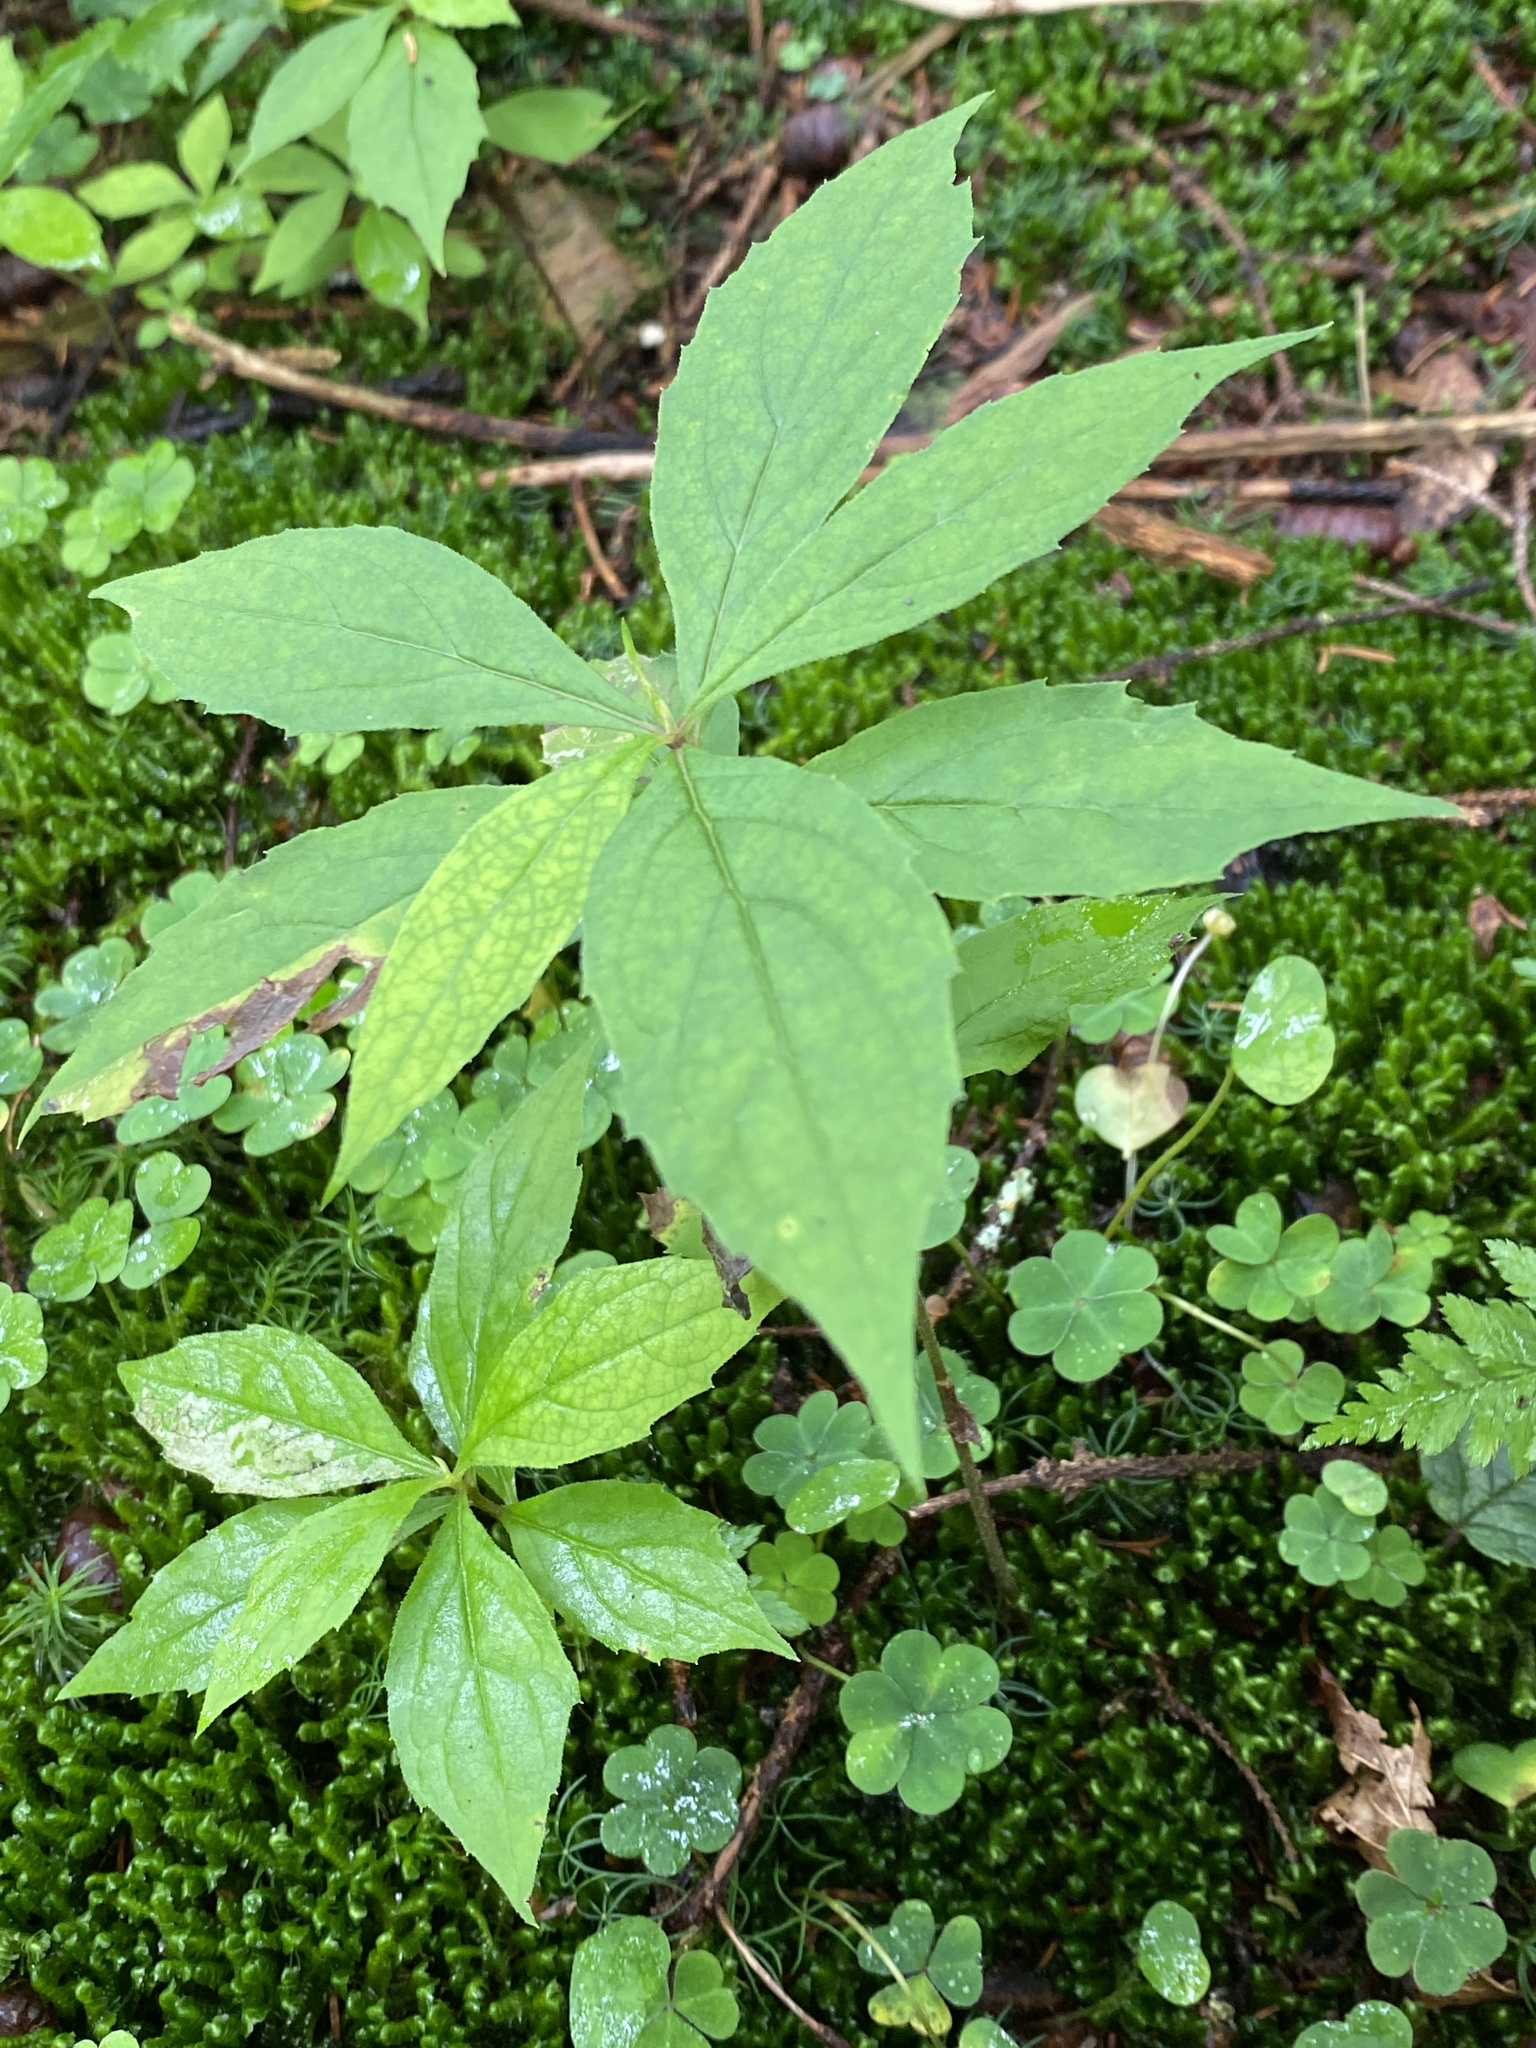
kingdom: Plantae
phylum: Tracheophyta
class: Magnoliopsida
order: Asterales
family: Asteraceae
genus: Oclemena
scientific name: Oclemena acuminata
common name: Mountain aster
